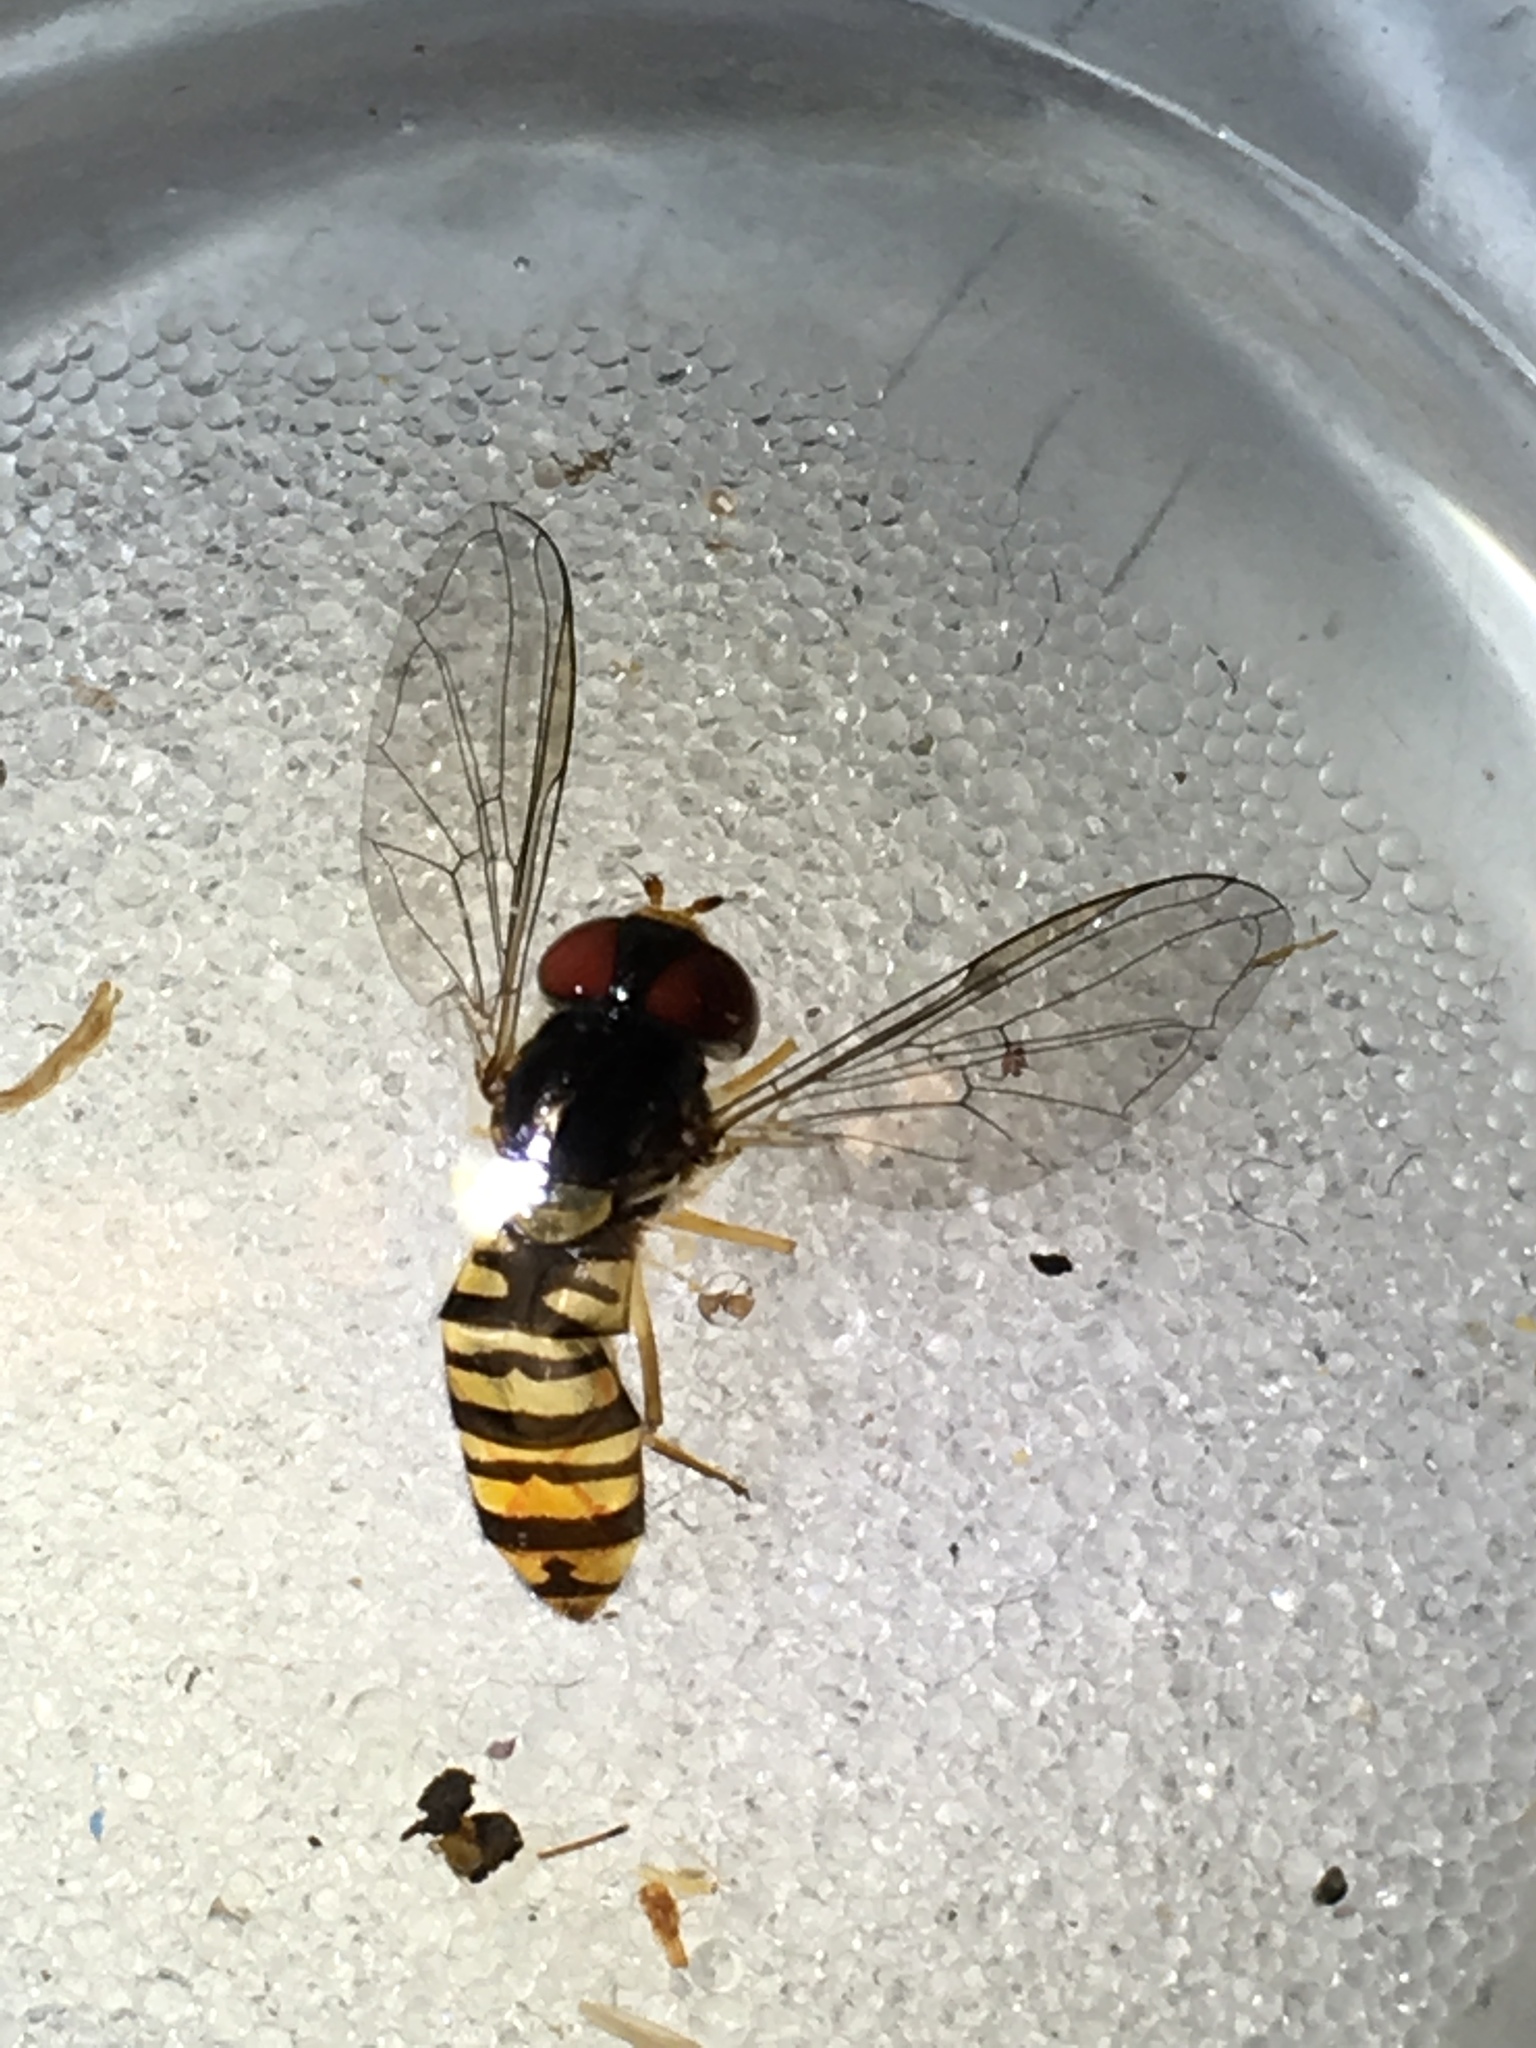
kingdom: Animalia
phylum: Arthropoda
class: Insecta
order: Diptera
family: Syrphidae
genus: Episyrphus
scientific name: Episyrphus balteatus
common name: Marmalade hoverfly
